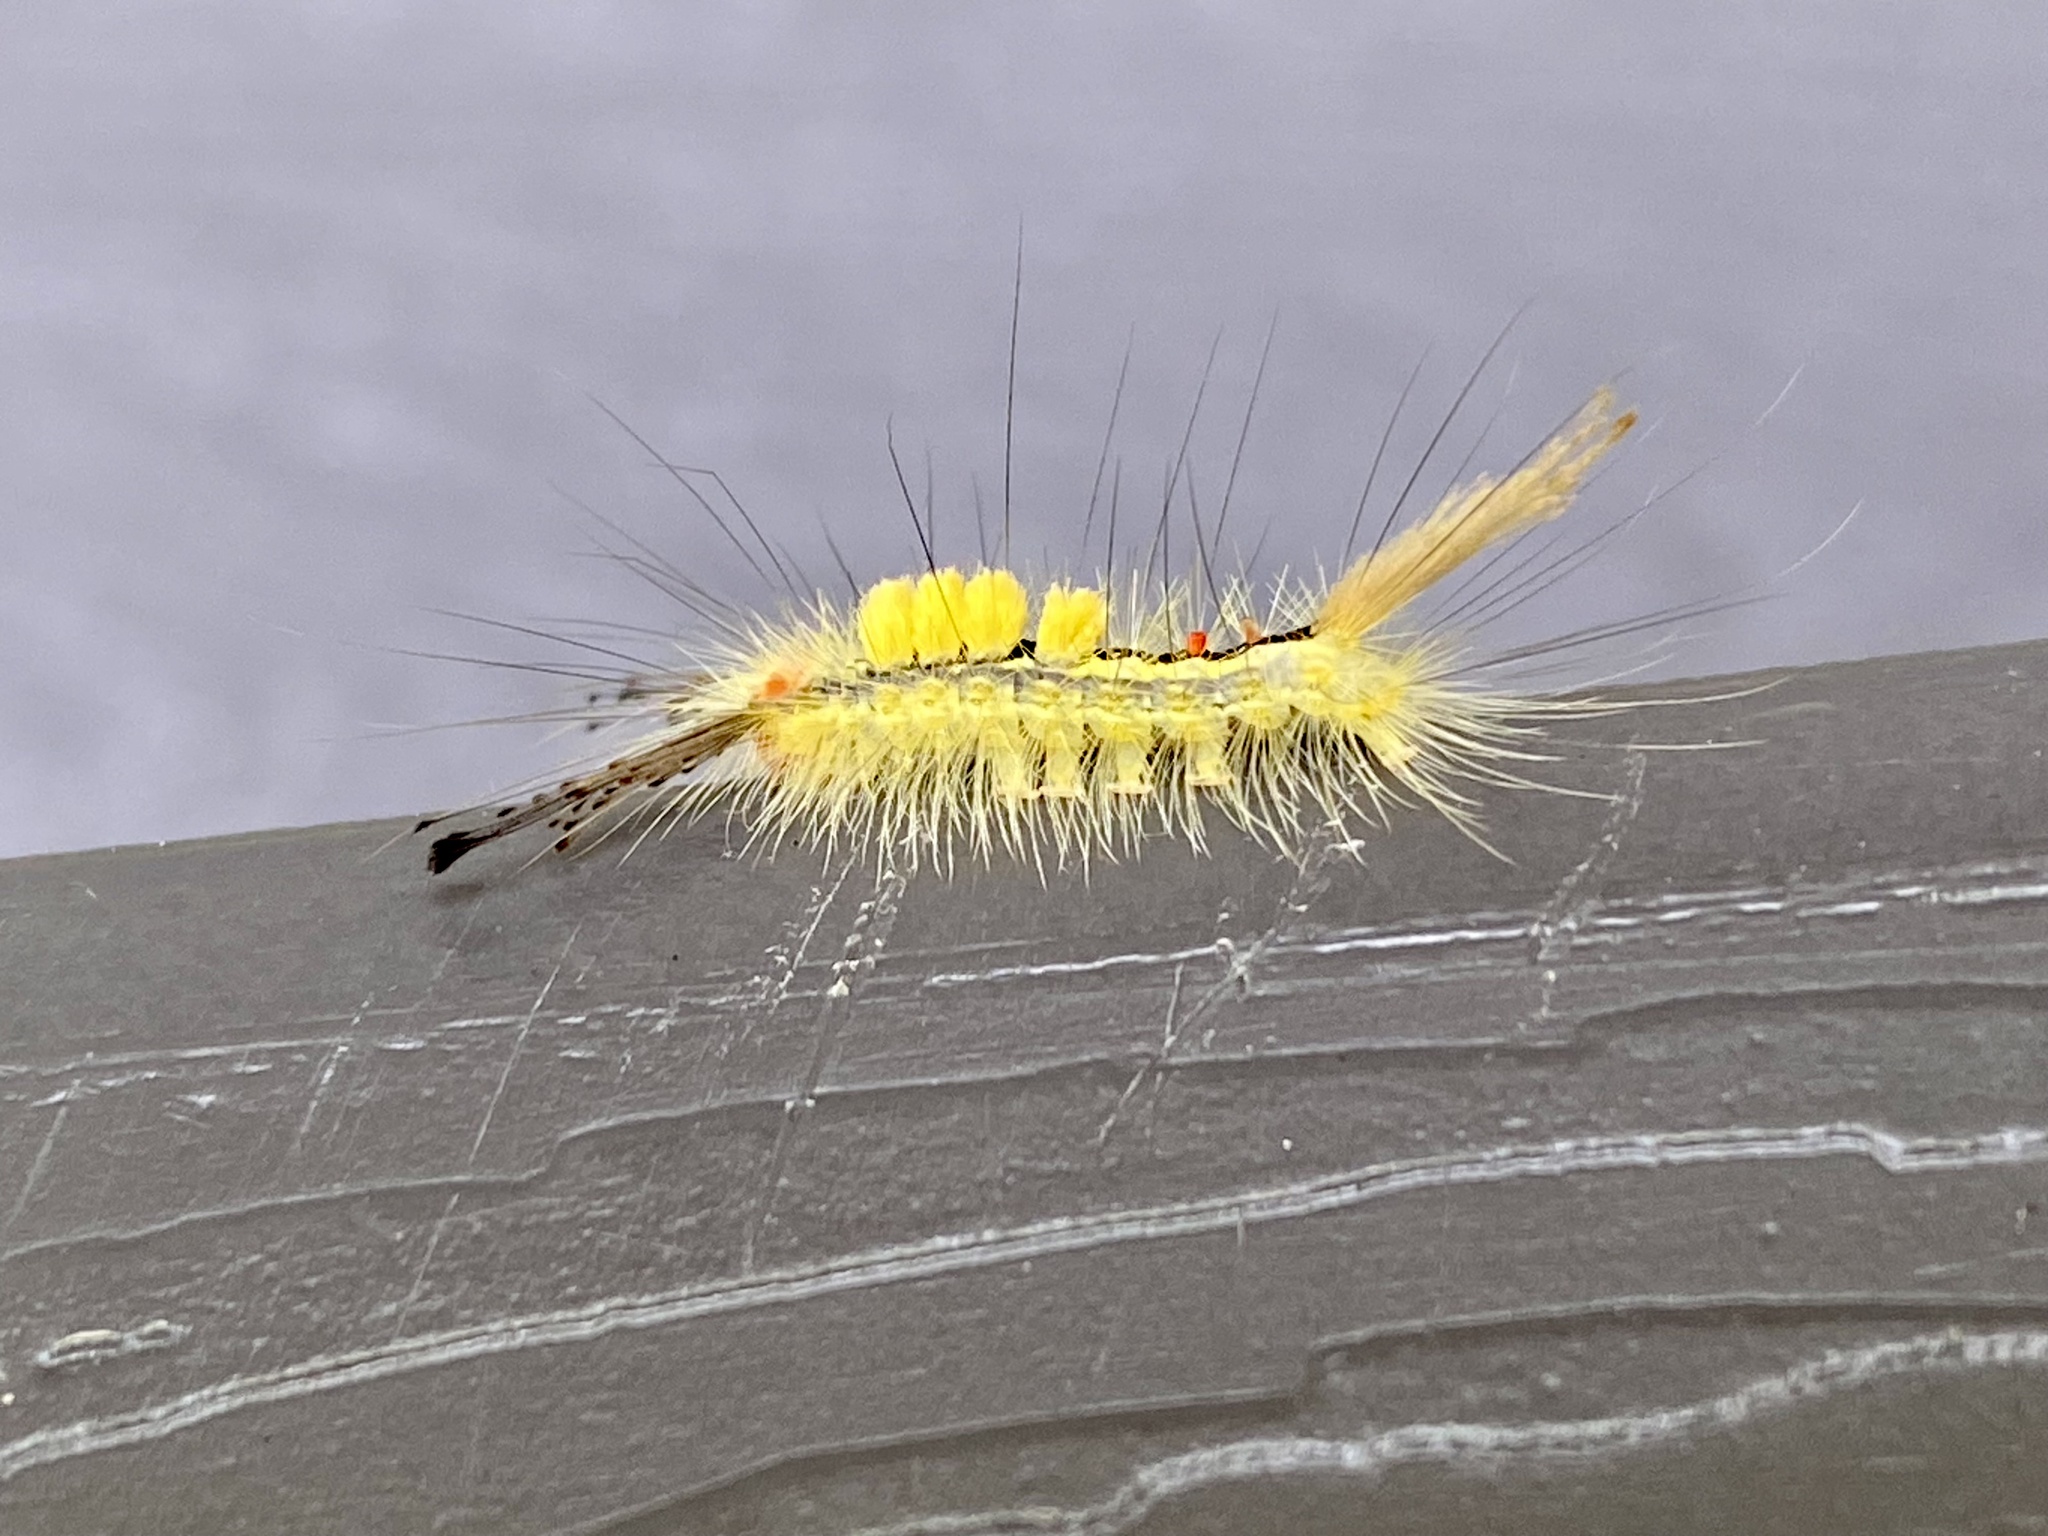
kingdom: Animalia
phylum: Arthropoda
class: Insecta
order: Lepidoptera
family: Erebidae
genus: Orgyia
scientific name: Orgyia leucostigma
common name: White-marked tussock moth
